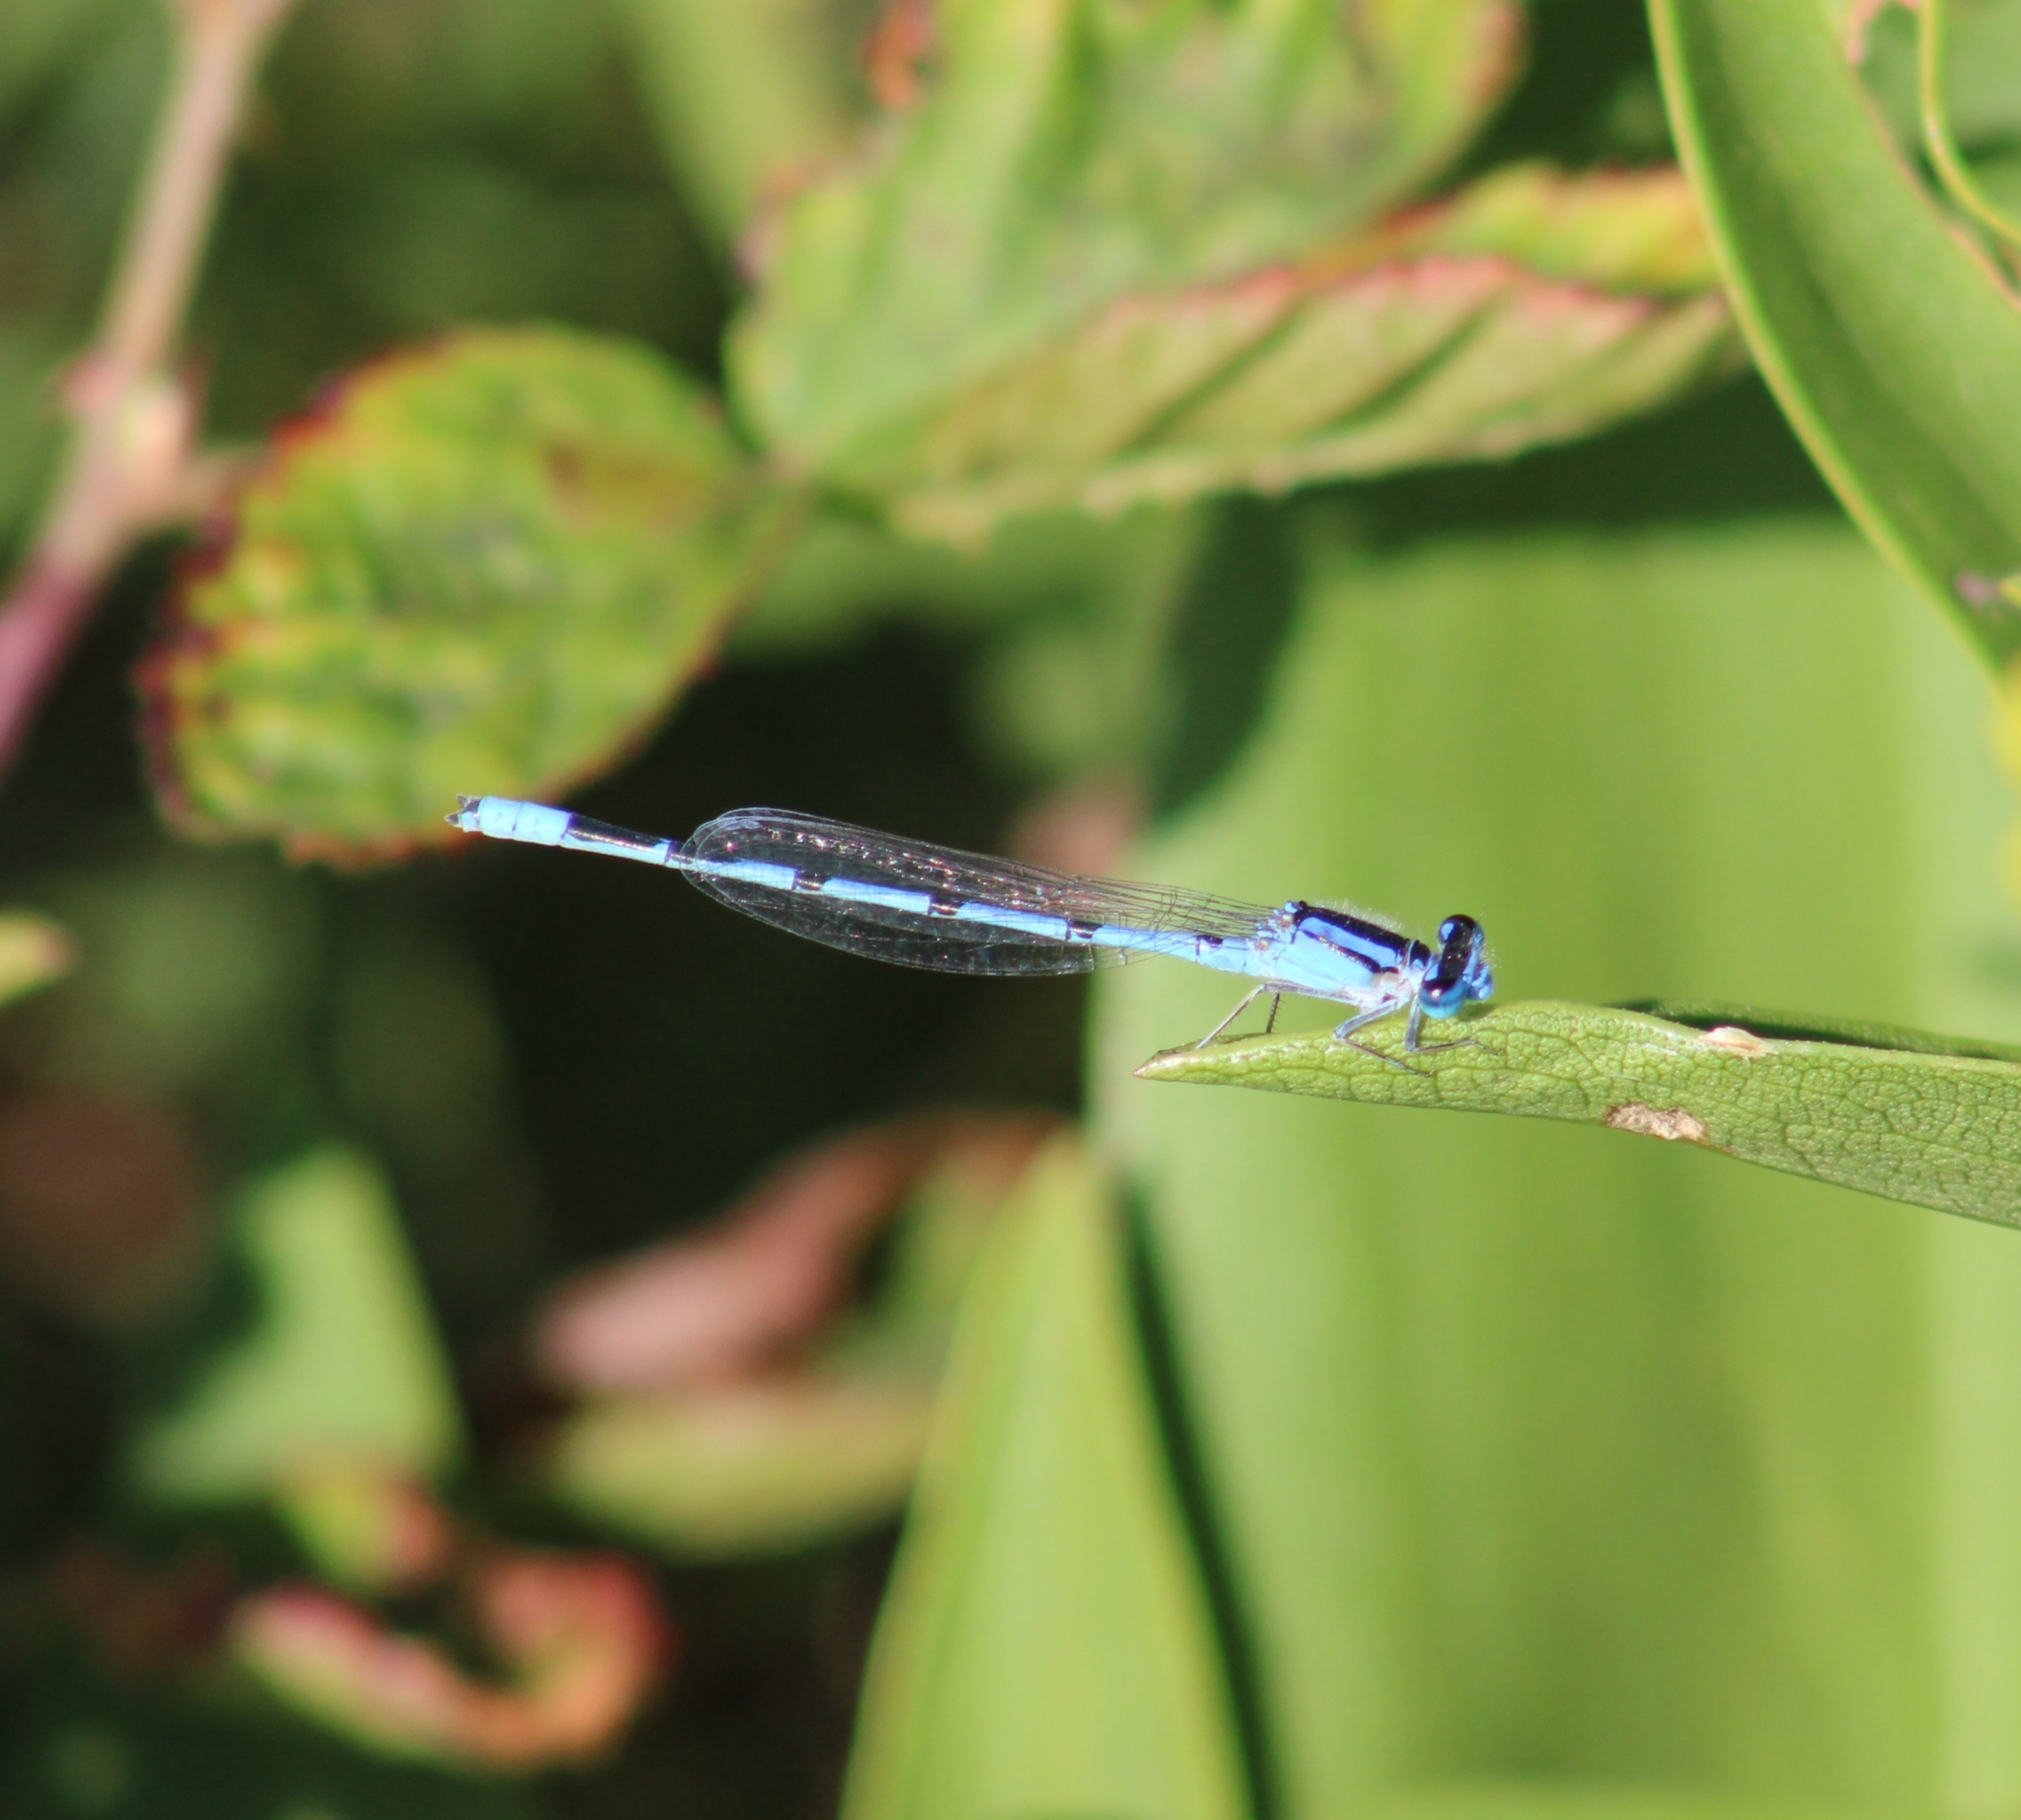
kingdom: Animalia
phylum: Arthropoda
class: Insecta
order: Odonata
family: Coenagrionidae
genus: Enallagma
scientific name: Enallagma civile
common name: Damselfly
